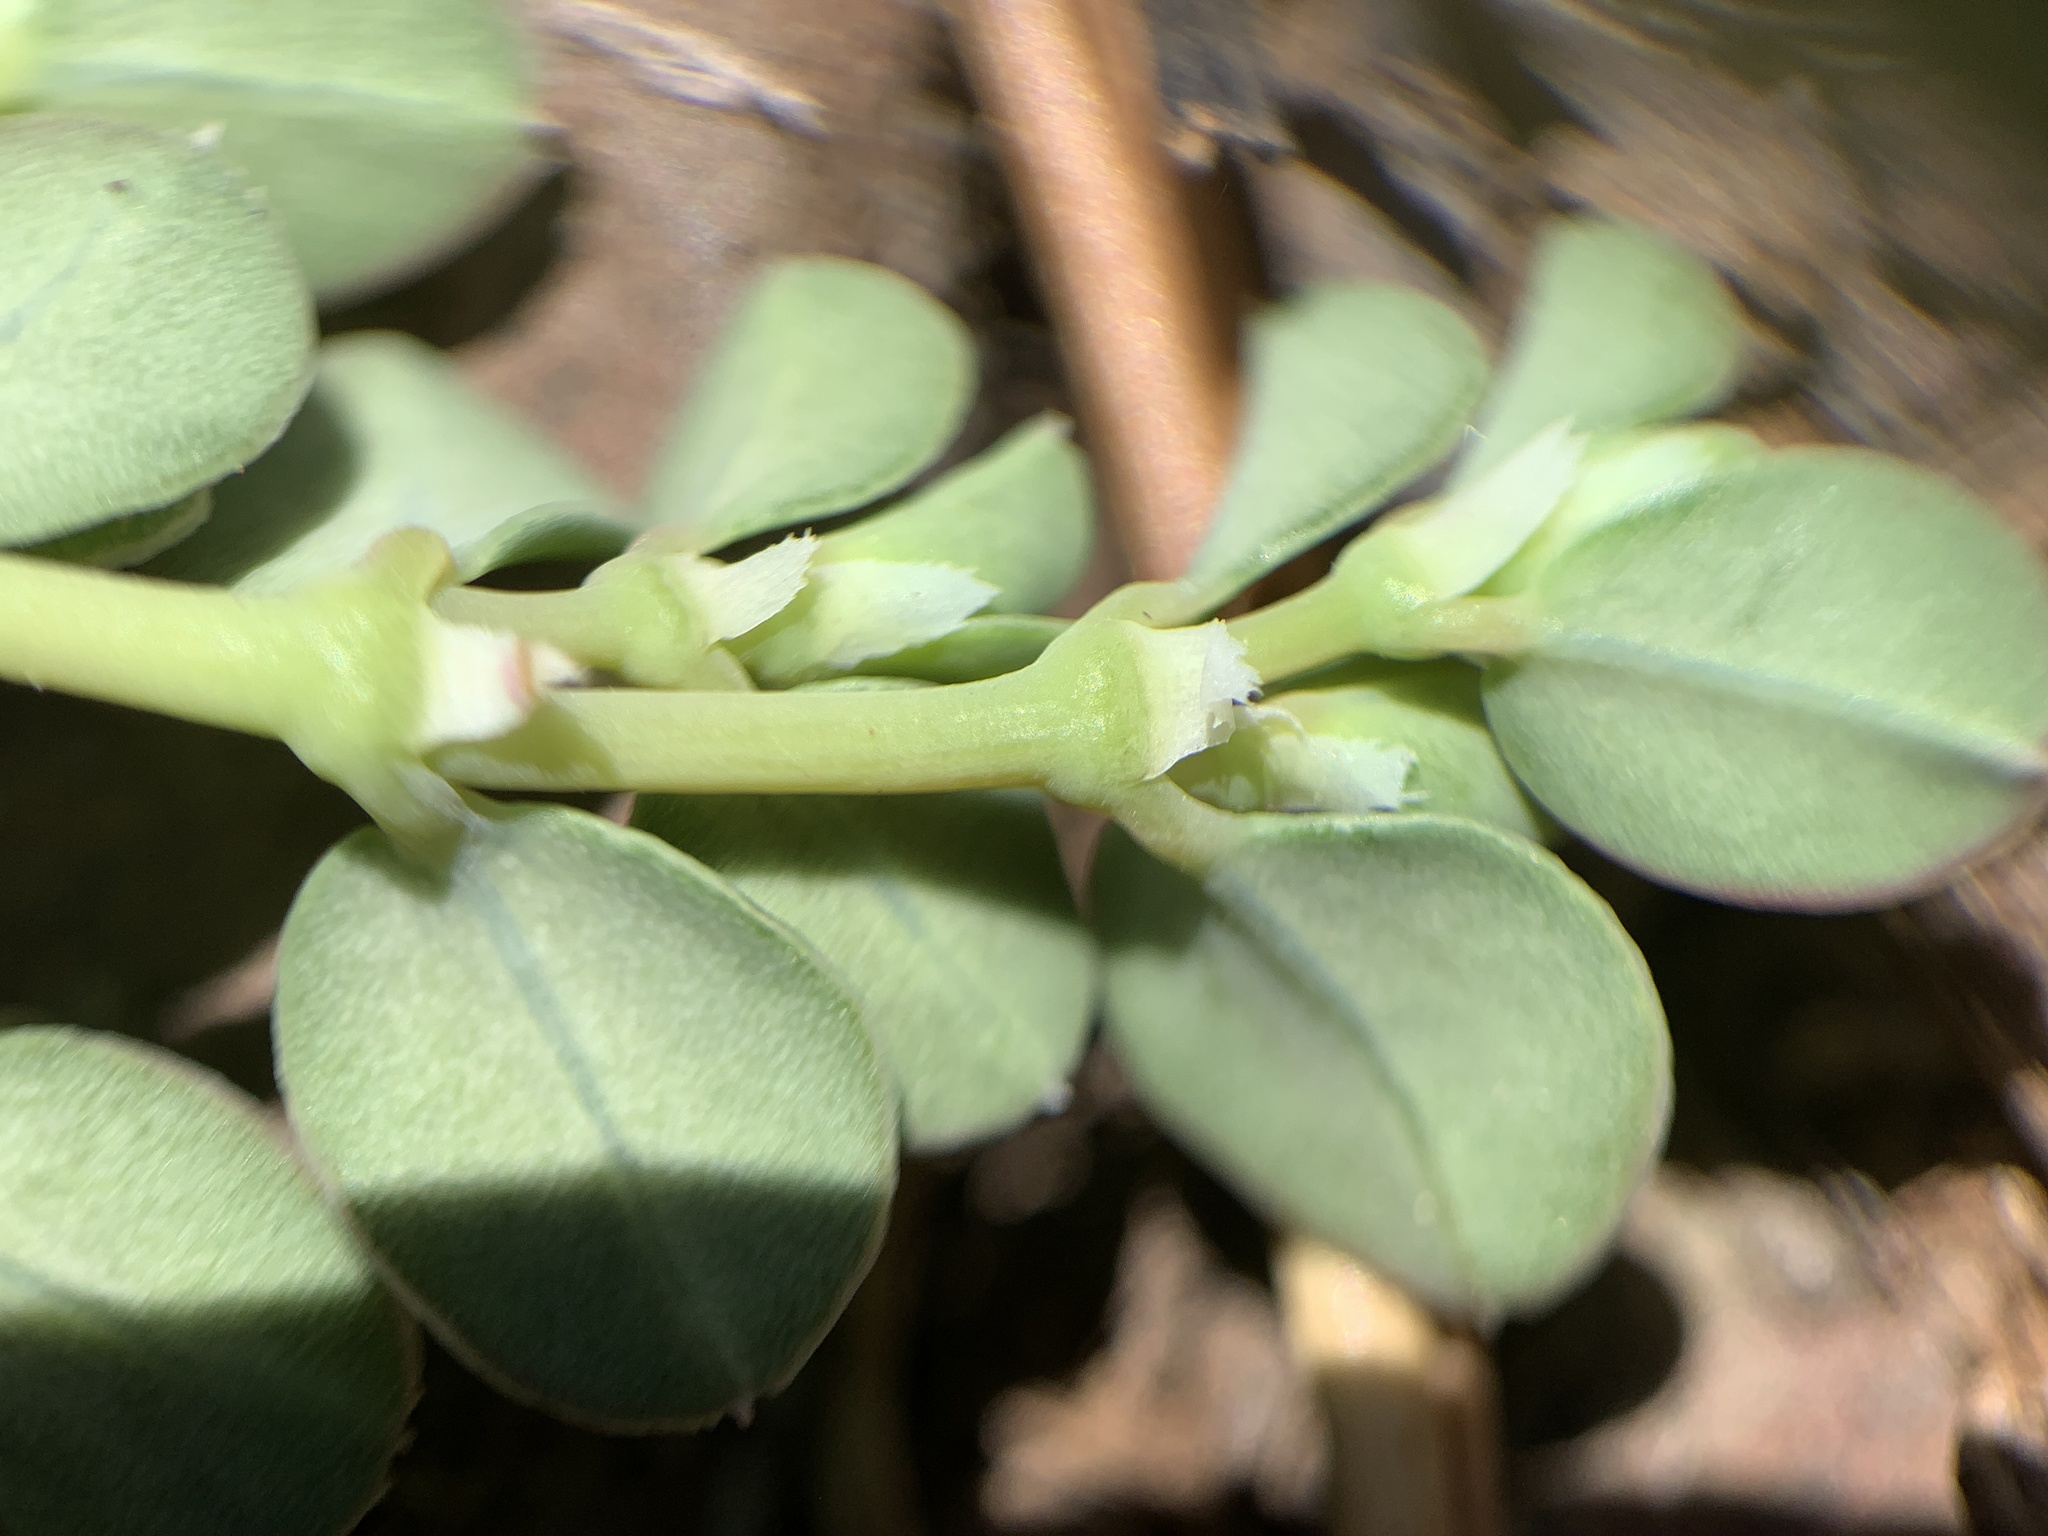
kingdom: Plantae
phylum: Tracheophyta
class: Magnoliopsida
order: Malpighiales
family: Euphorbiaceae
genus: Euphorbia
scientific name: Euphorbia albomarginata
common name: Whitemargin sandmat
